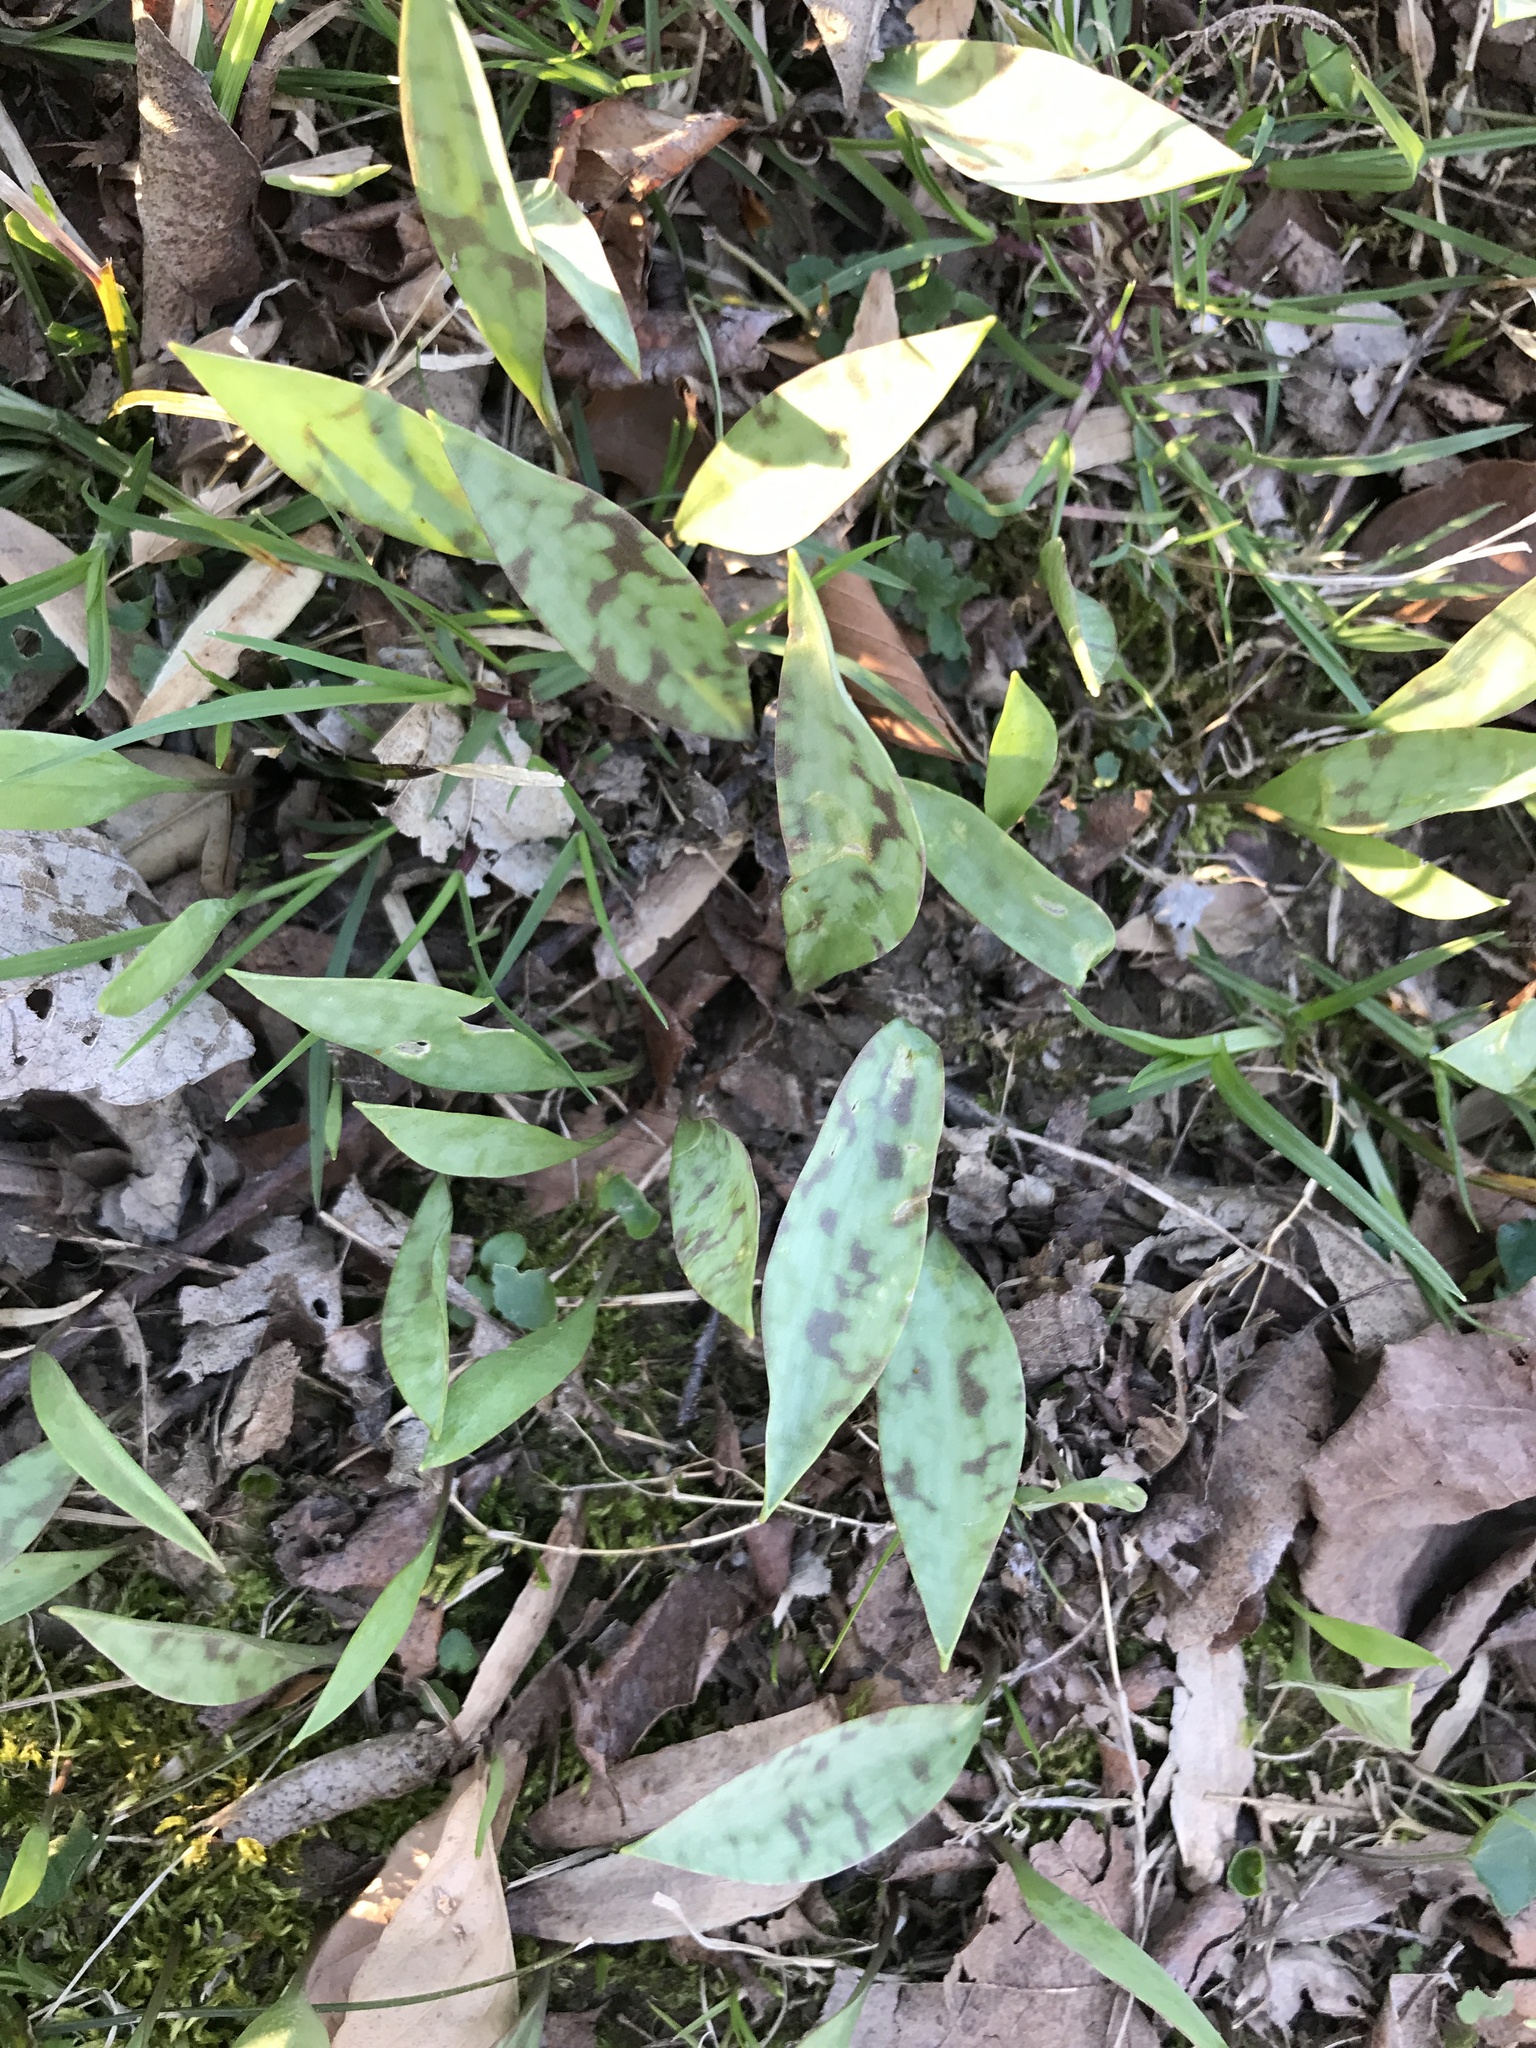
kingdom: Plantae
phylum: Tracheophyta
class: Liliopsida
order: Liliales
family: Liliaceae
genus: Erythronium
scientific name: Erythronium americanum
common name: Yellow adder's-tongue
